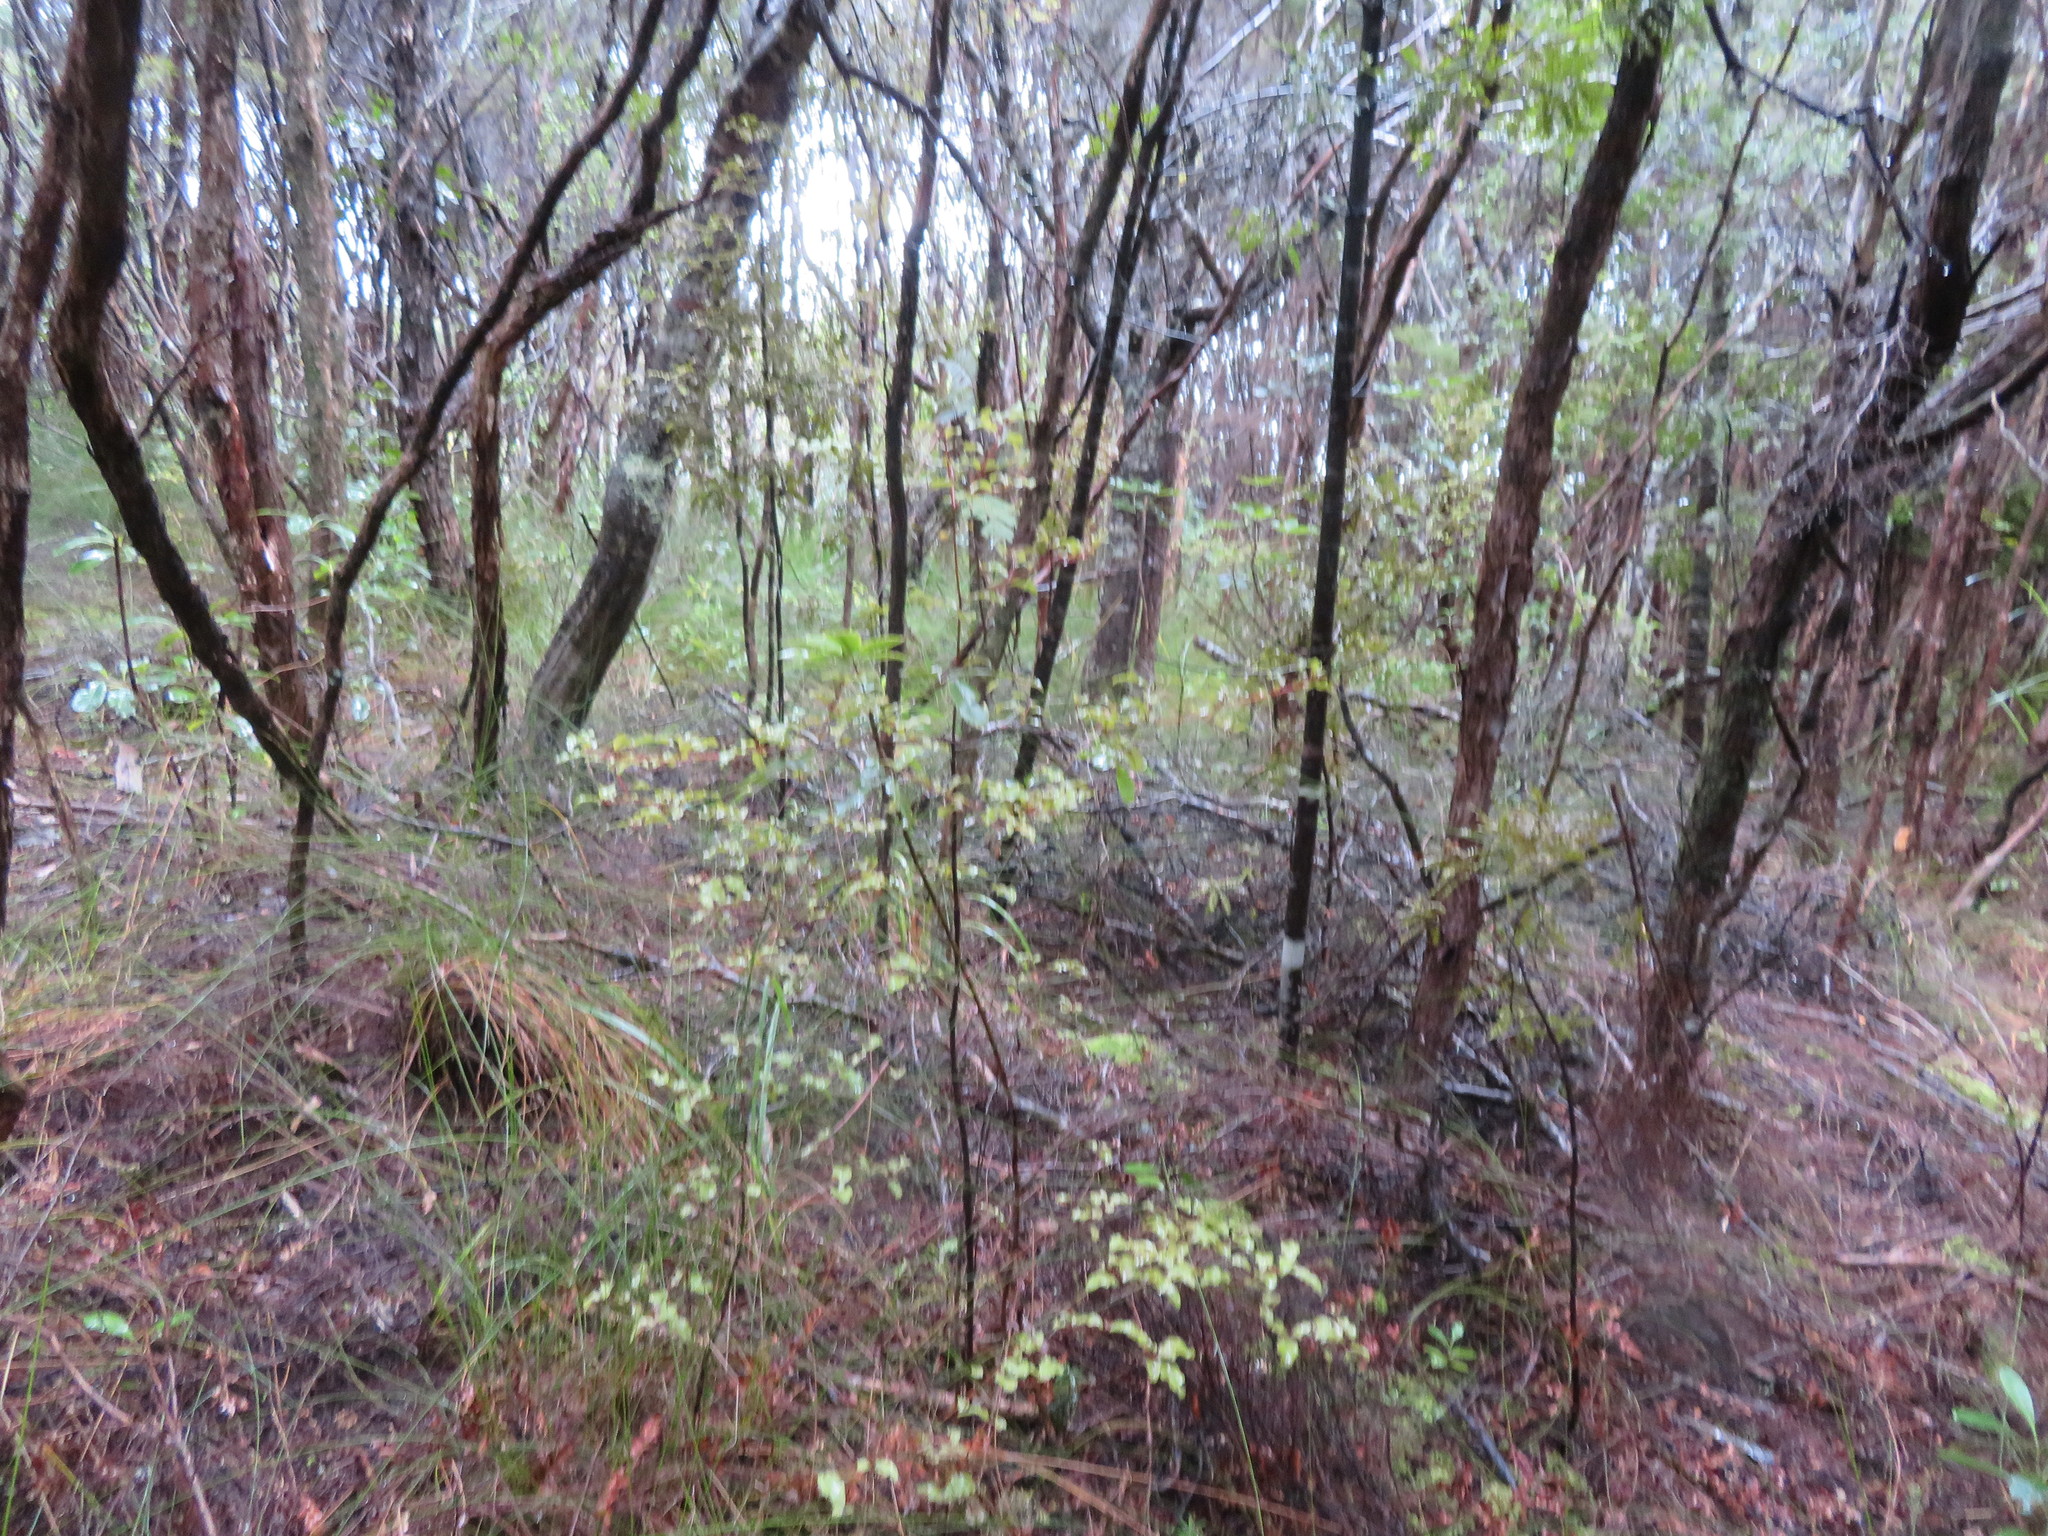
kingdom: Plantae
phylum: Tracheophyta
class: Liliopsida
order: Poales
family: Cyperaceae
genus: Schoenus
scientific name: Schoenus tendo
